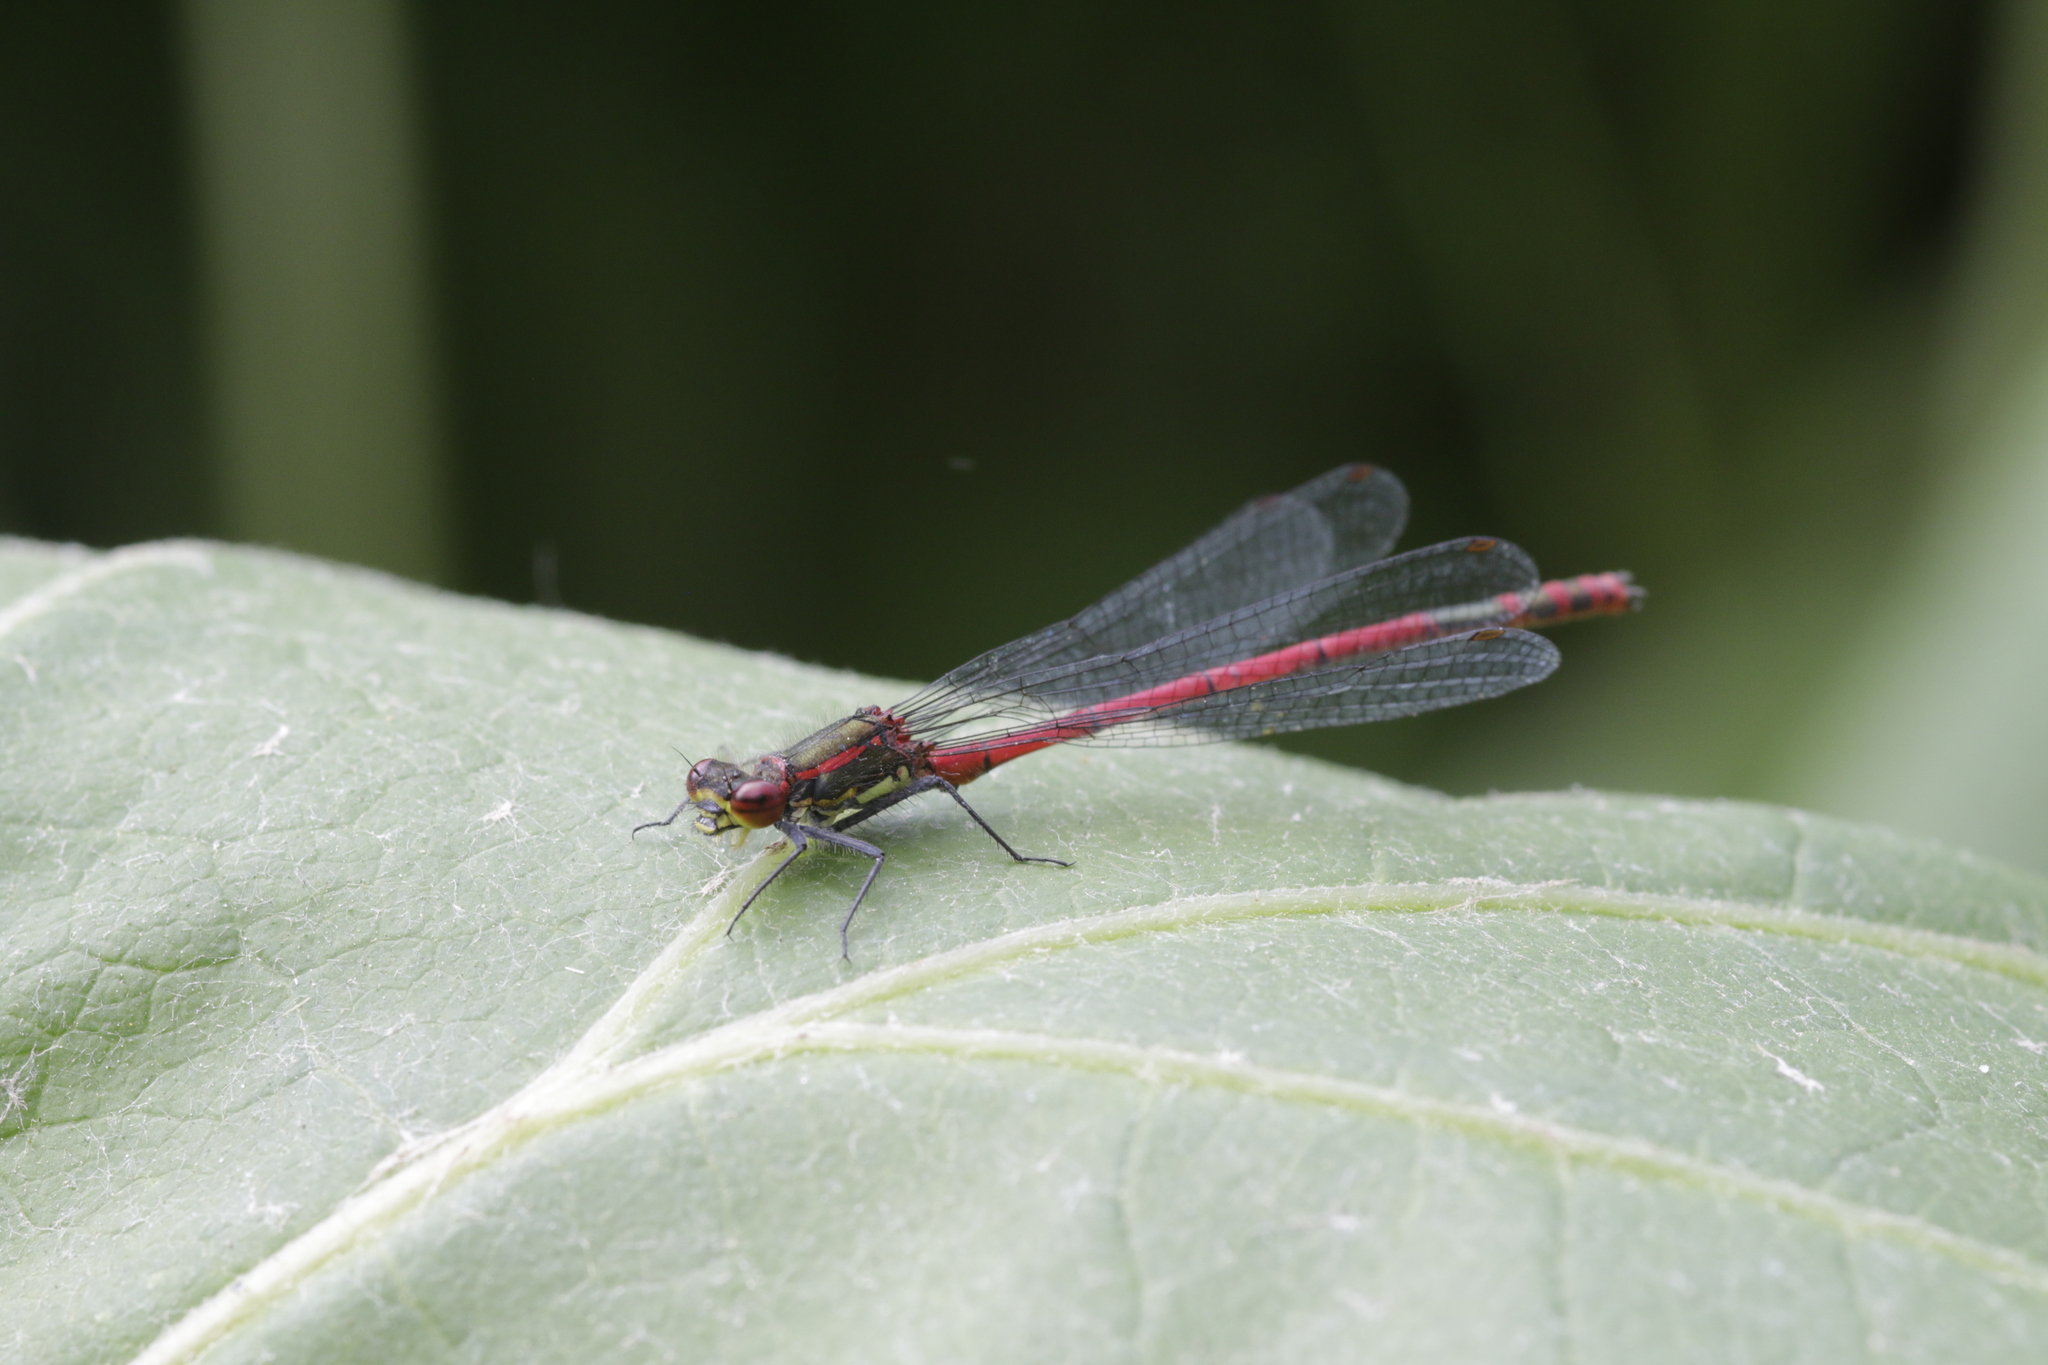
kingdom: Animalia
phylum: Arthropoda
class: Insecta
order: Odonata
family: Coenagrionidae
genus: Pyrrhosoma
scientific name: Pyrrhosoma nymphula
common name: Large red damsel
